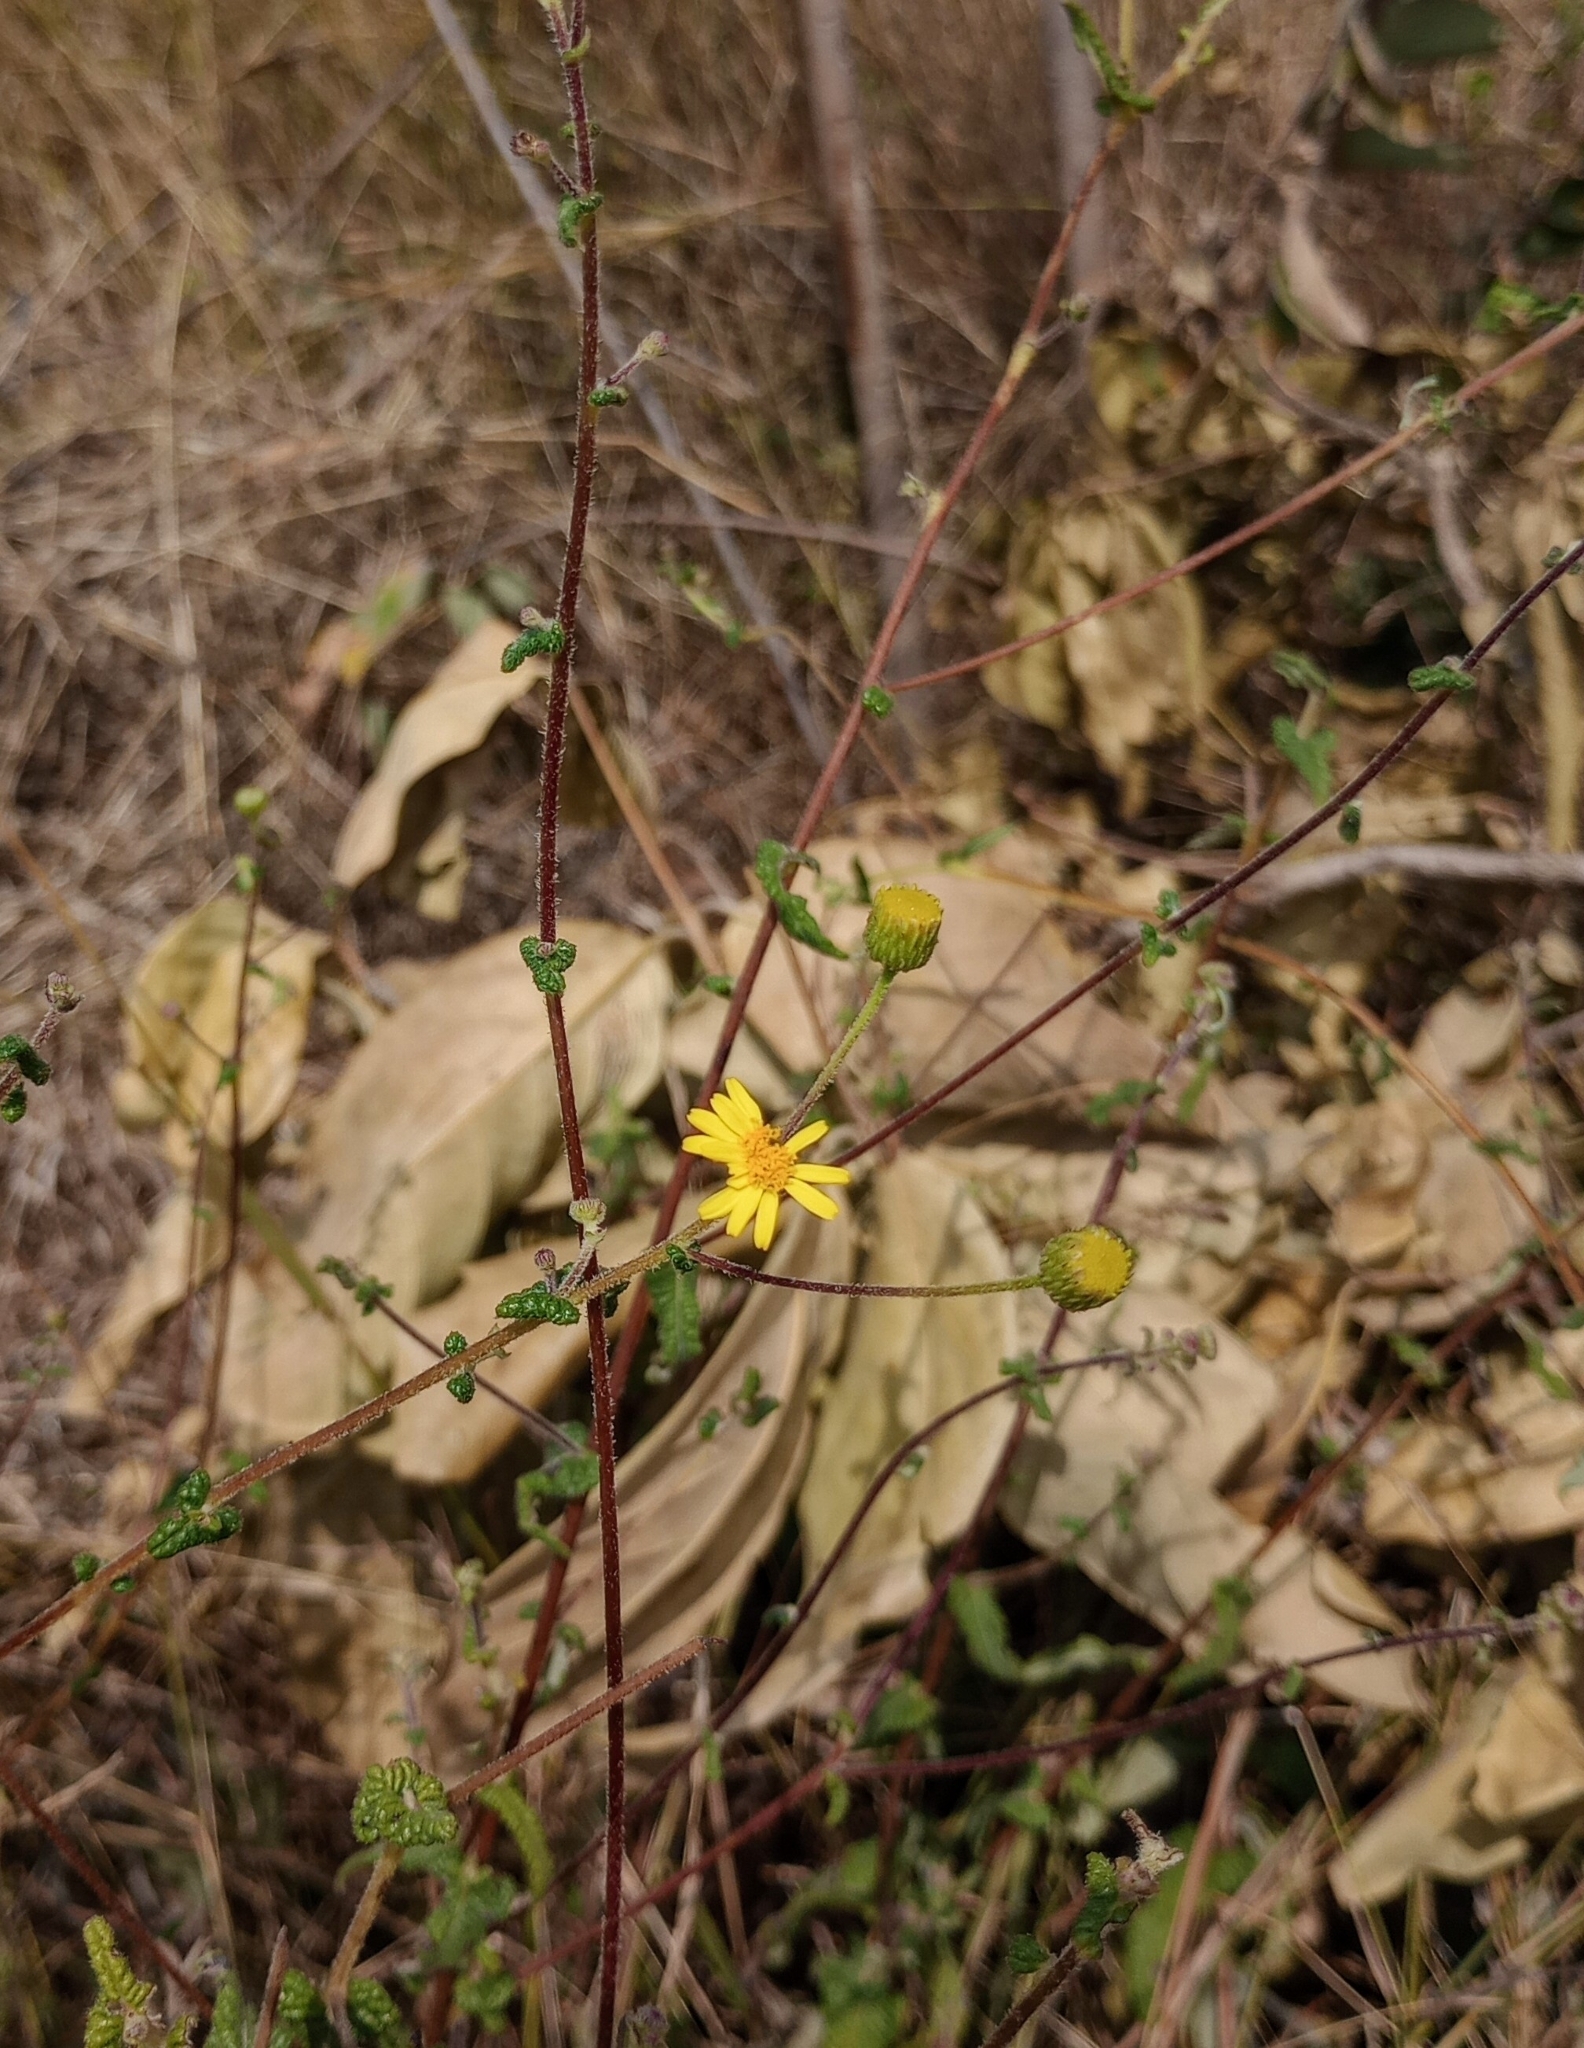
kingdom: Plantae
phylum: Tracheophyta
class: Magnoliopsida
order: Asterales
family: Asteraceae
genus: Vicoa
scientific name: Vicoa indica
